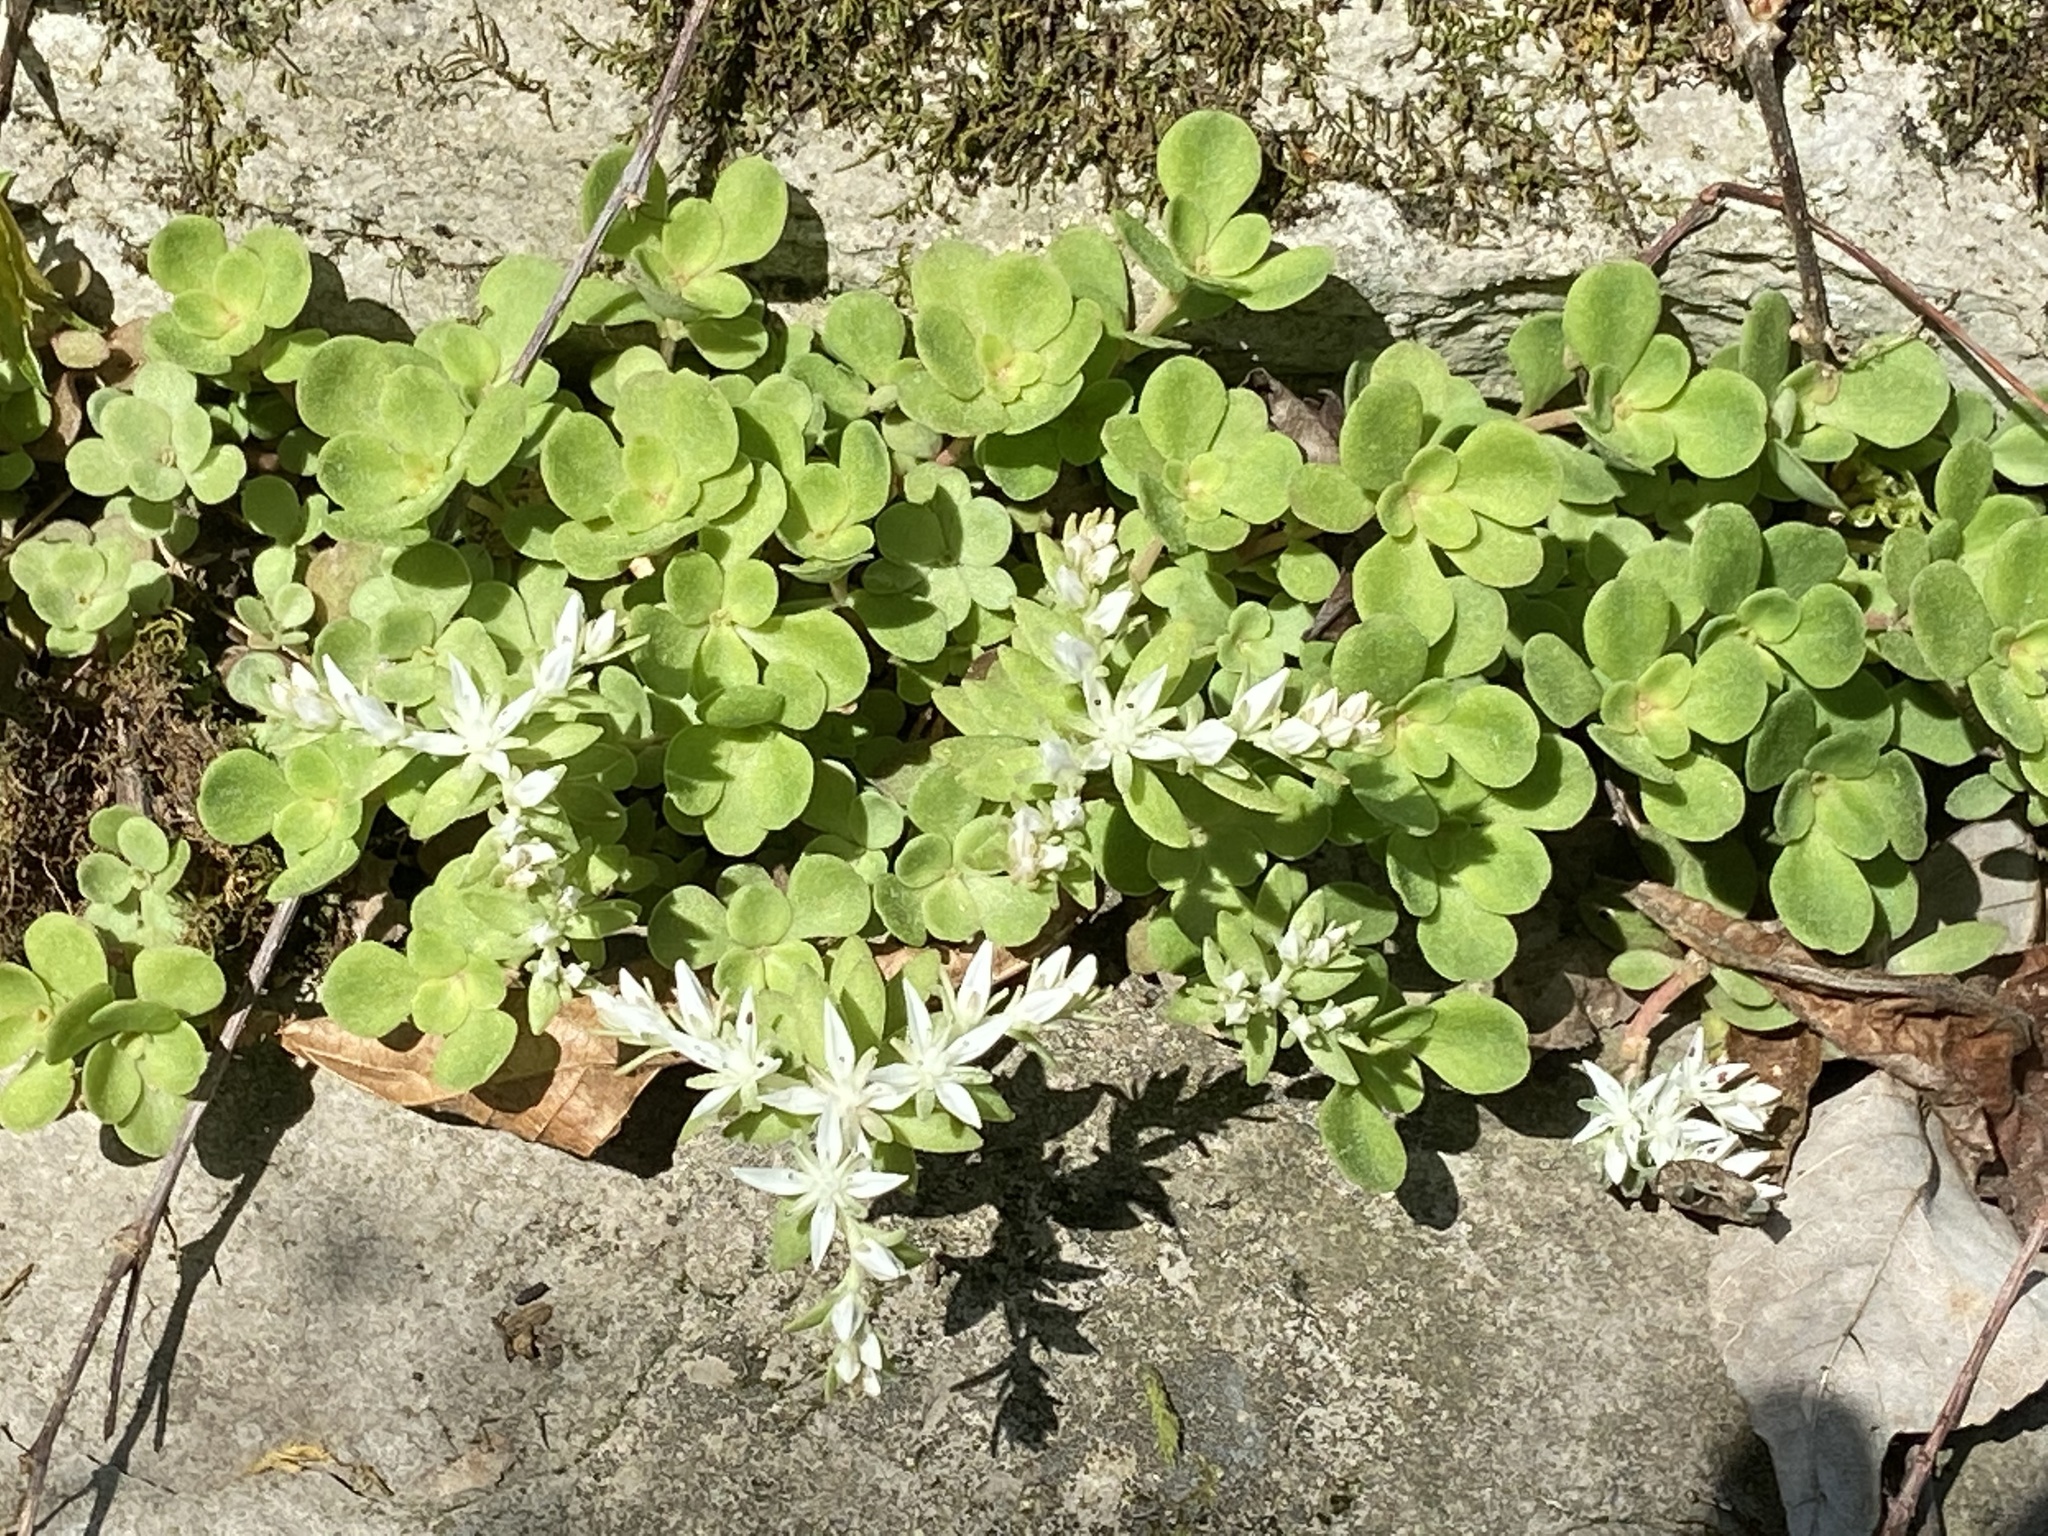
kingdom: Plantae
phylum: Tracheophyta
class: Magnoliopsida
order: Saxifragales
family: Crassulaceae
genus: Sedum
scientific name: Sedum ternatum
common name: Wild stonecrop
